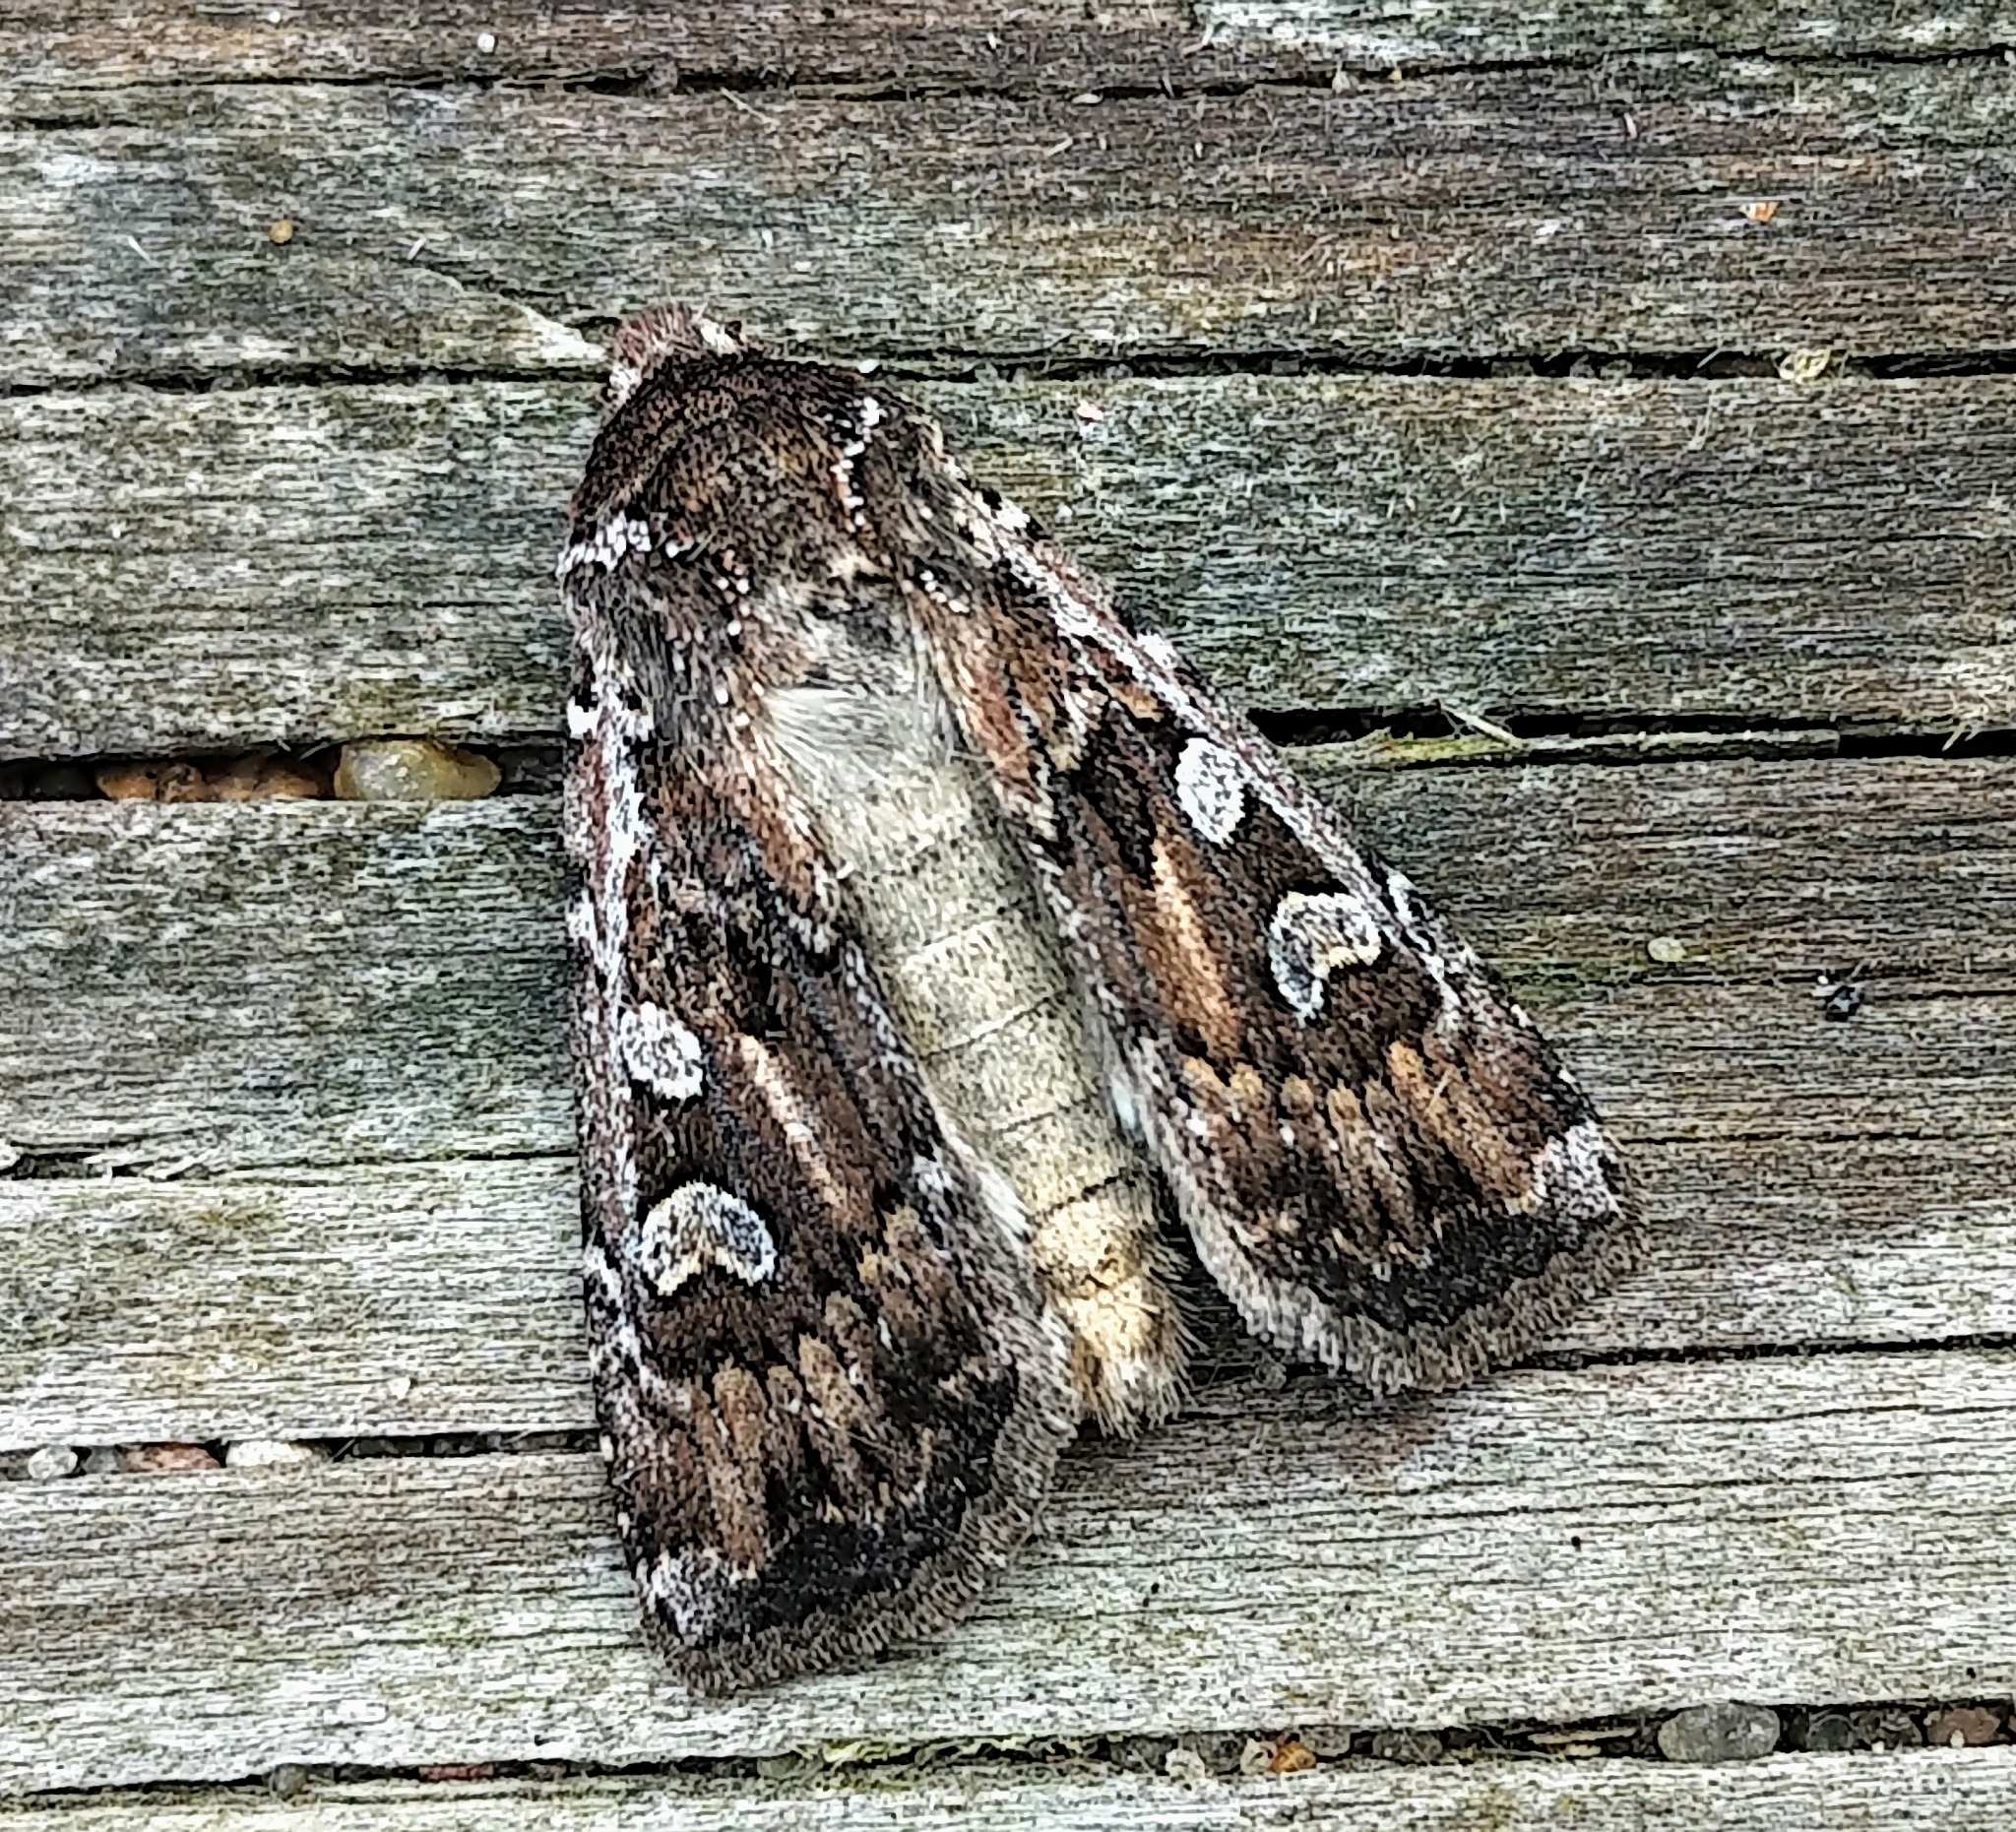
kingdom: Animalia
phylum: Arthropoda
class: Insecta
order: Lepidoptera
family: Noctuidae
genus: Euxoa
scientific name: Euxoa manitobana
